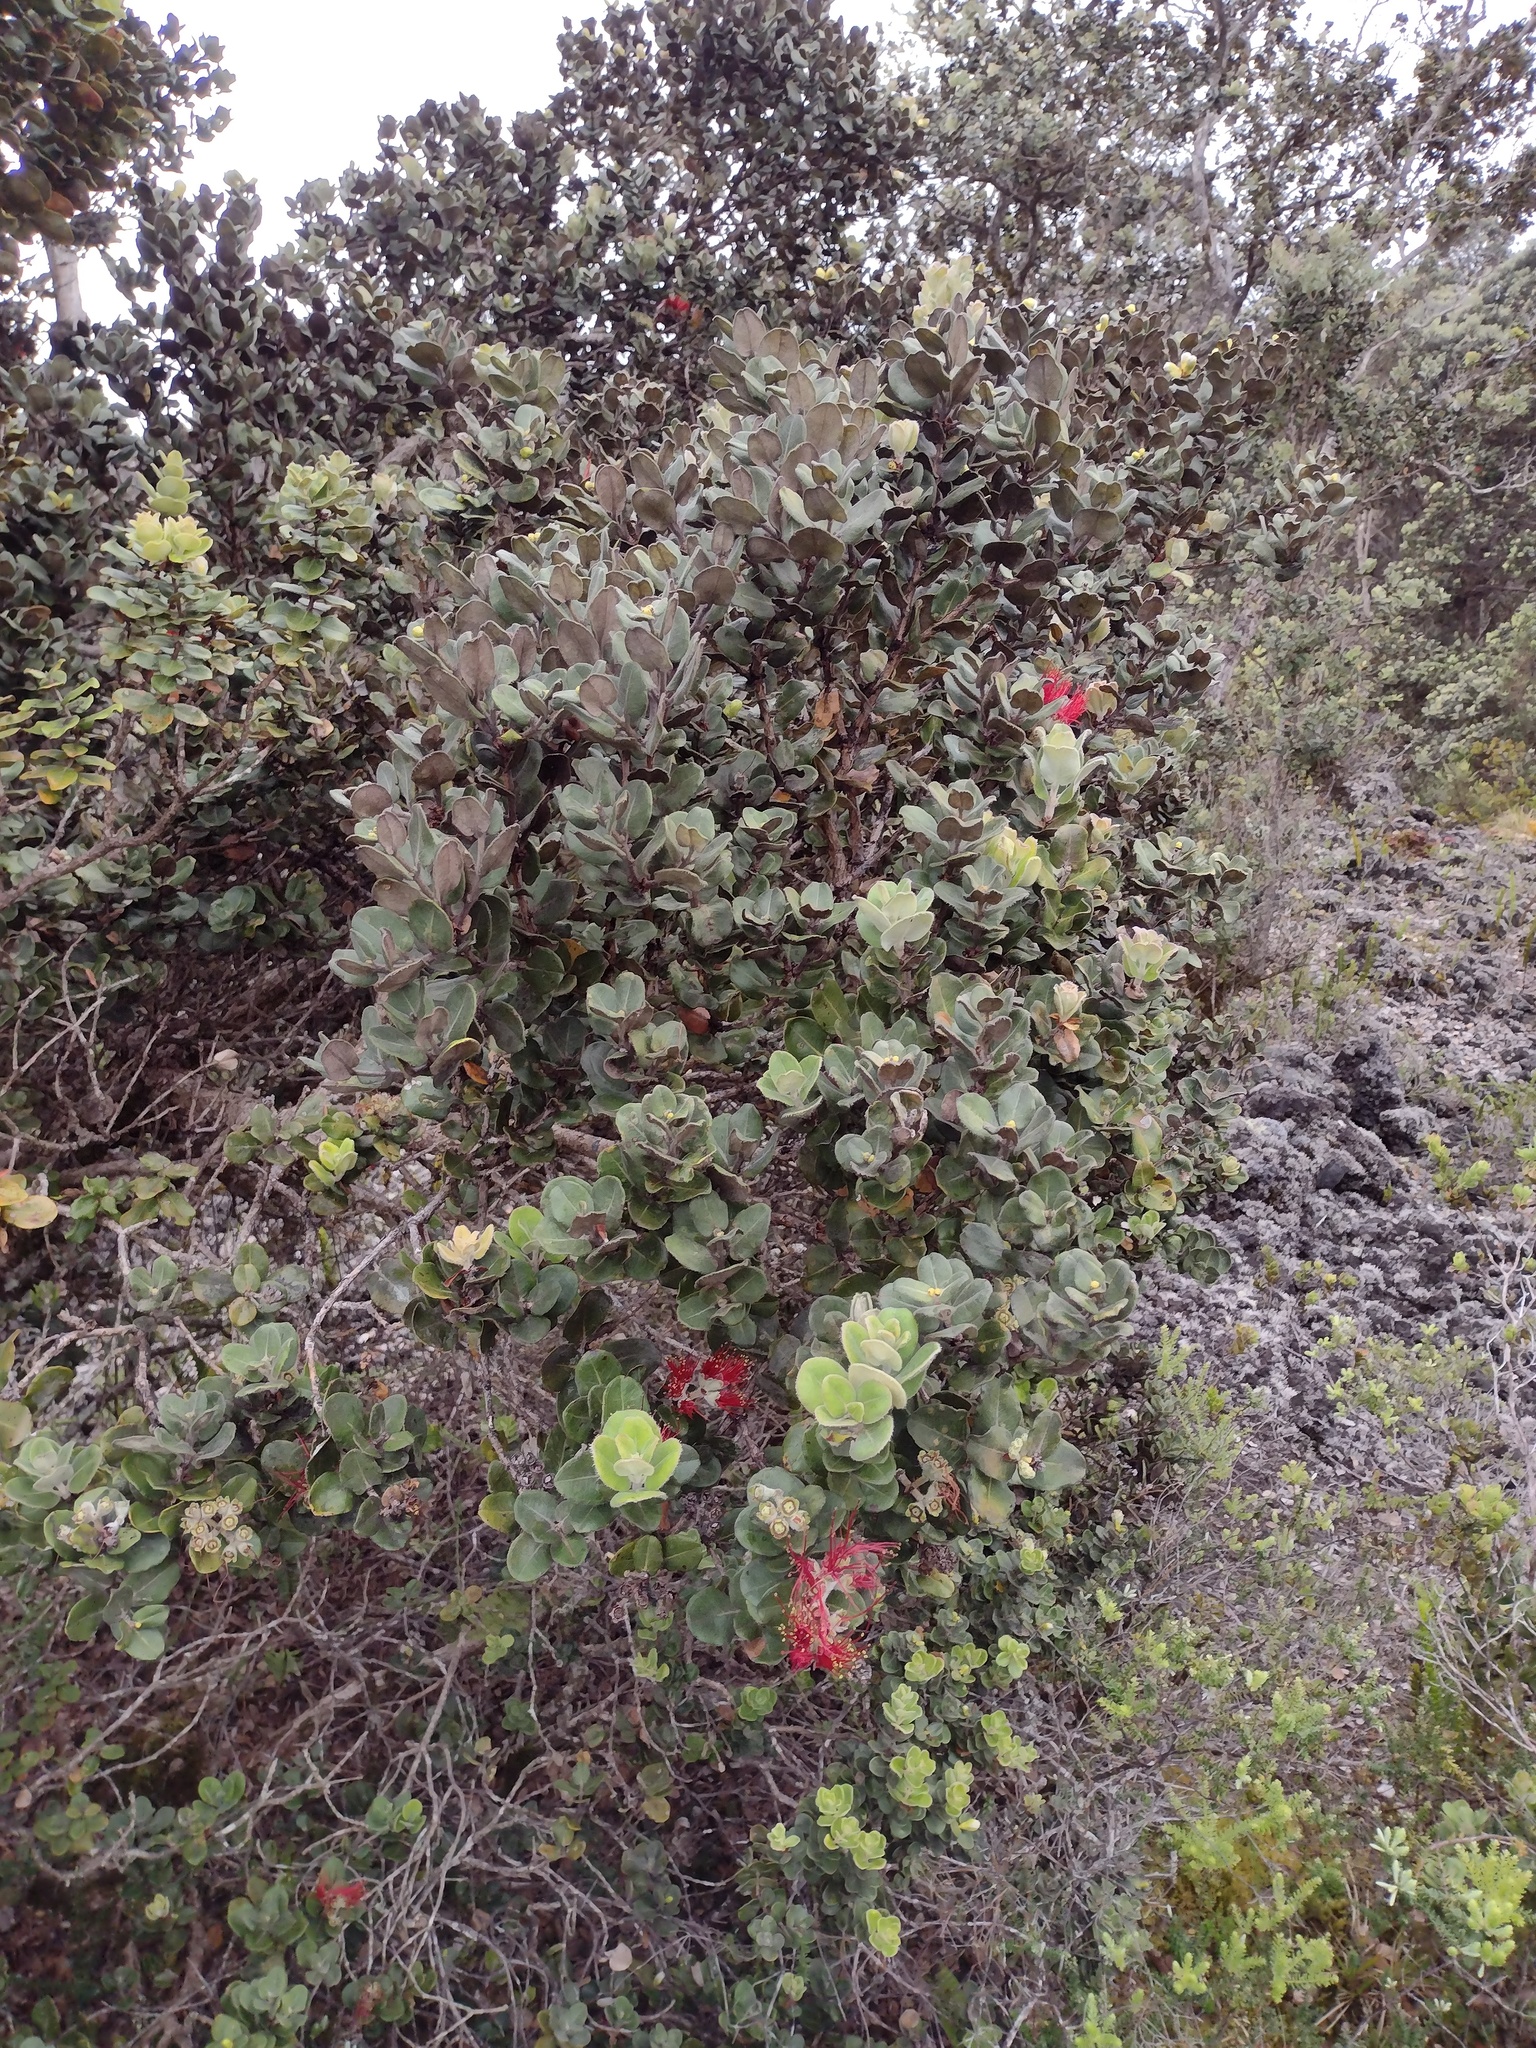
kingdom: Plantae
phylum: Tracheophyta
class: Magnoliopsida
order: Myrtales
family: Myrtaceae
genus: Metrosideros
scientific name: Metrosideros polymorpha
